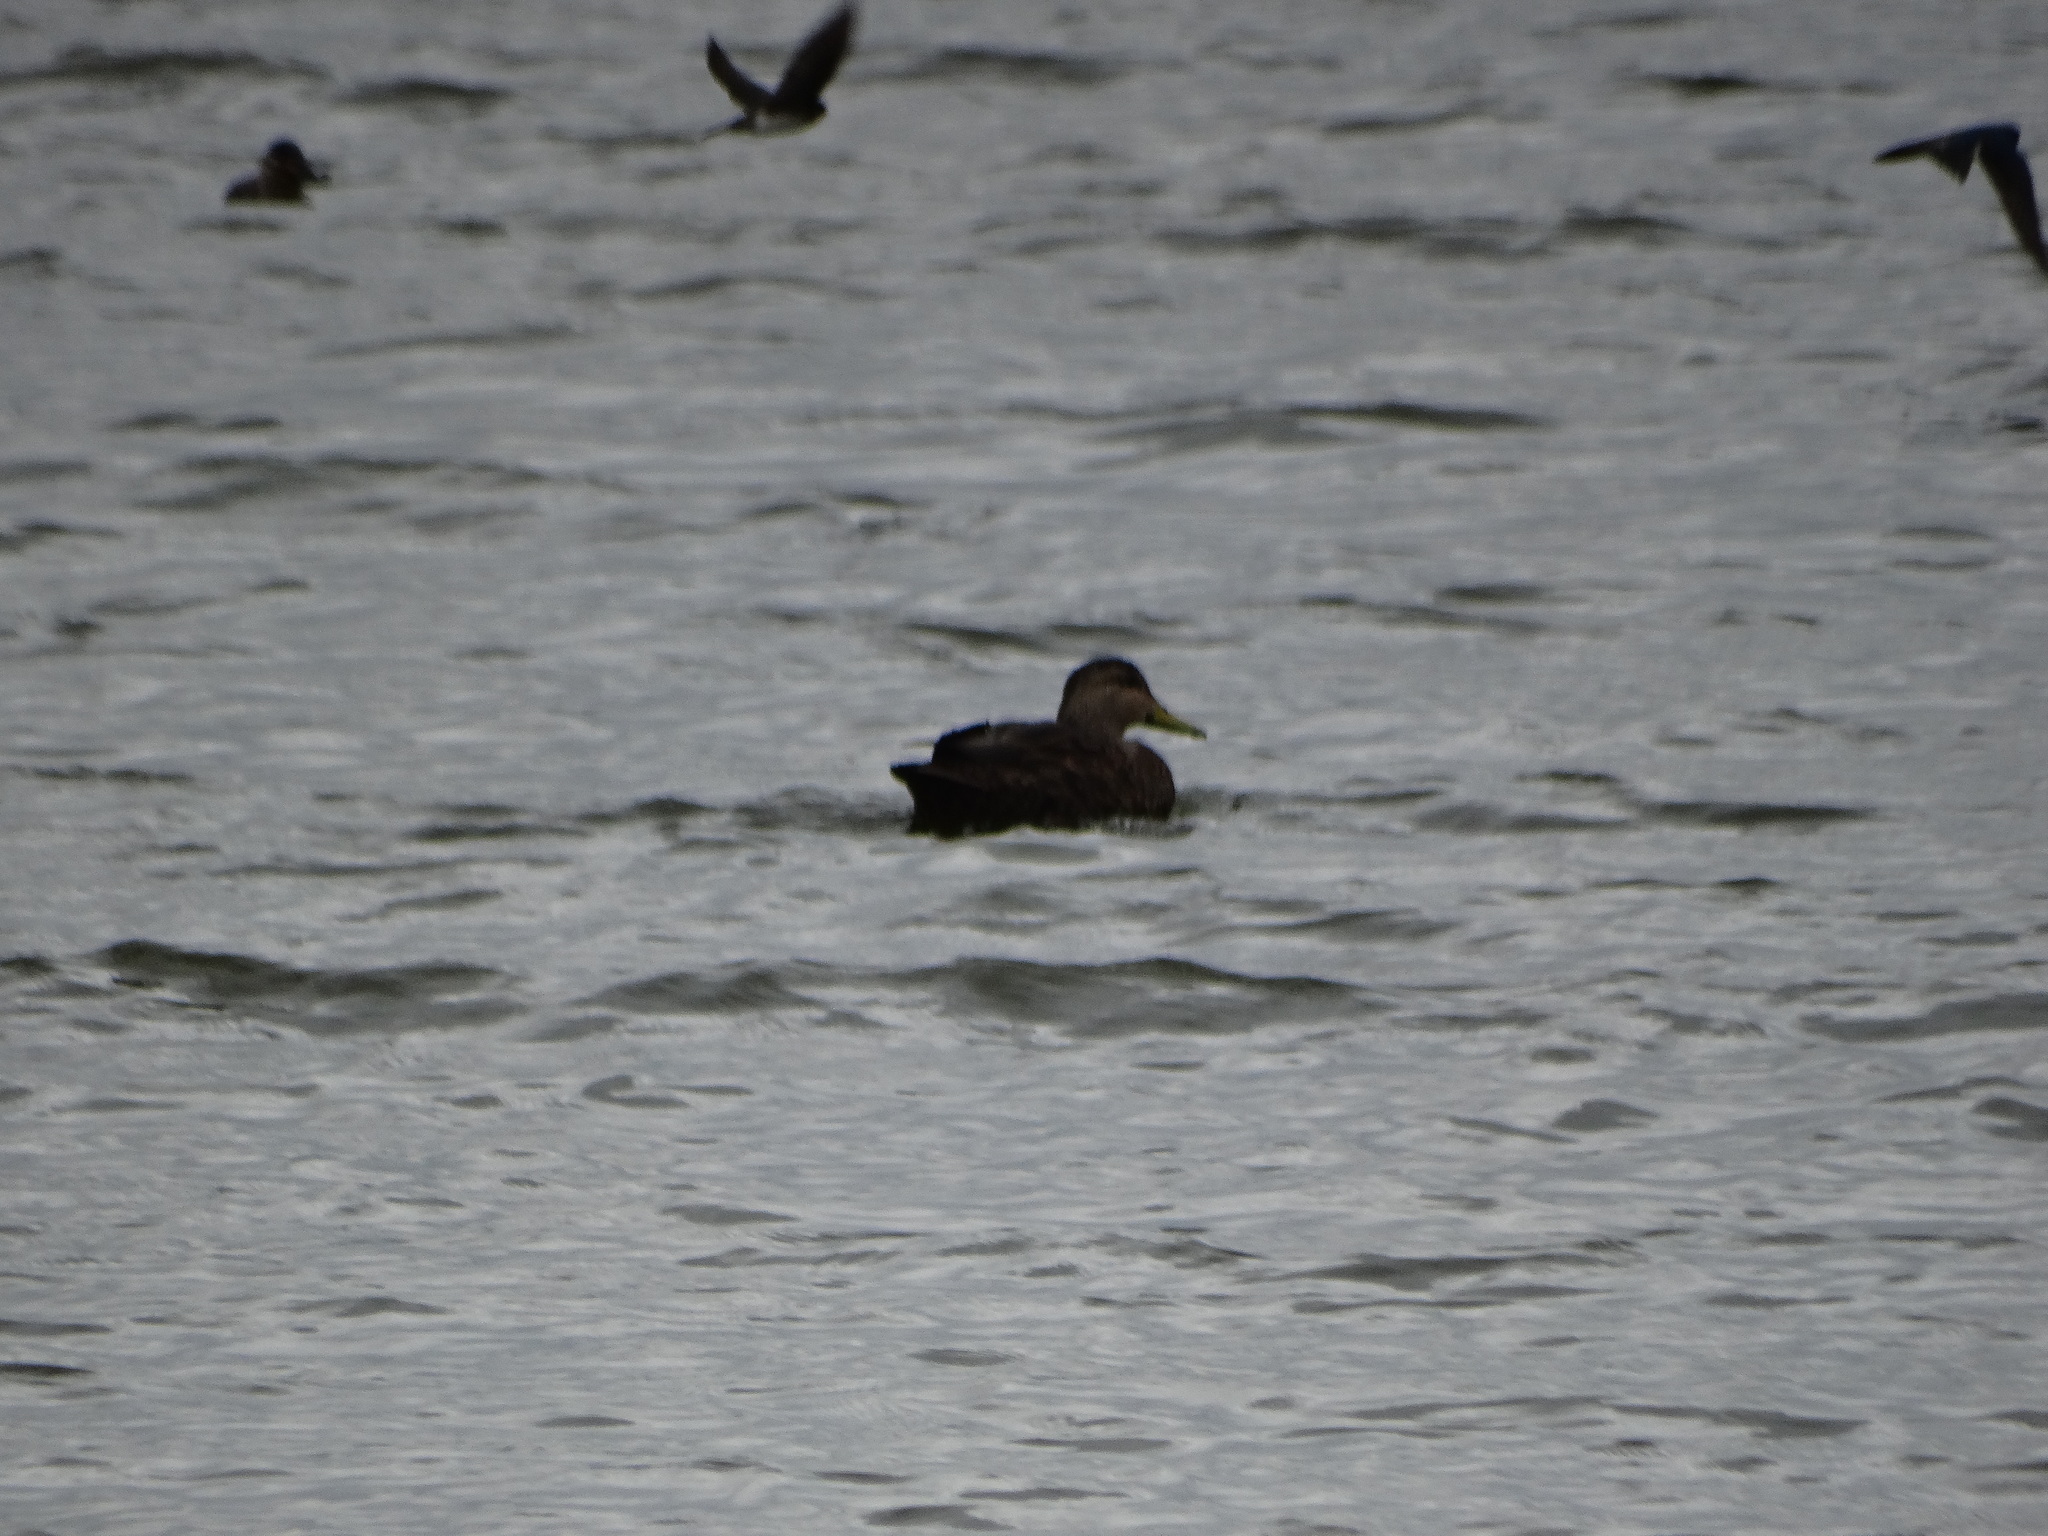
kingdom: Animalia
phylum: Chordata
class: Aves
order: Anseriformes
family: Anatidae
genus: Anas
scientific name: Anas diazi
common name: Mexican duck
